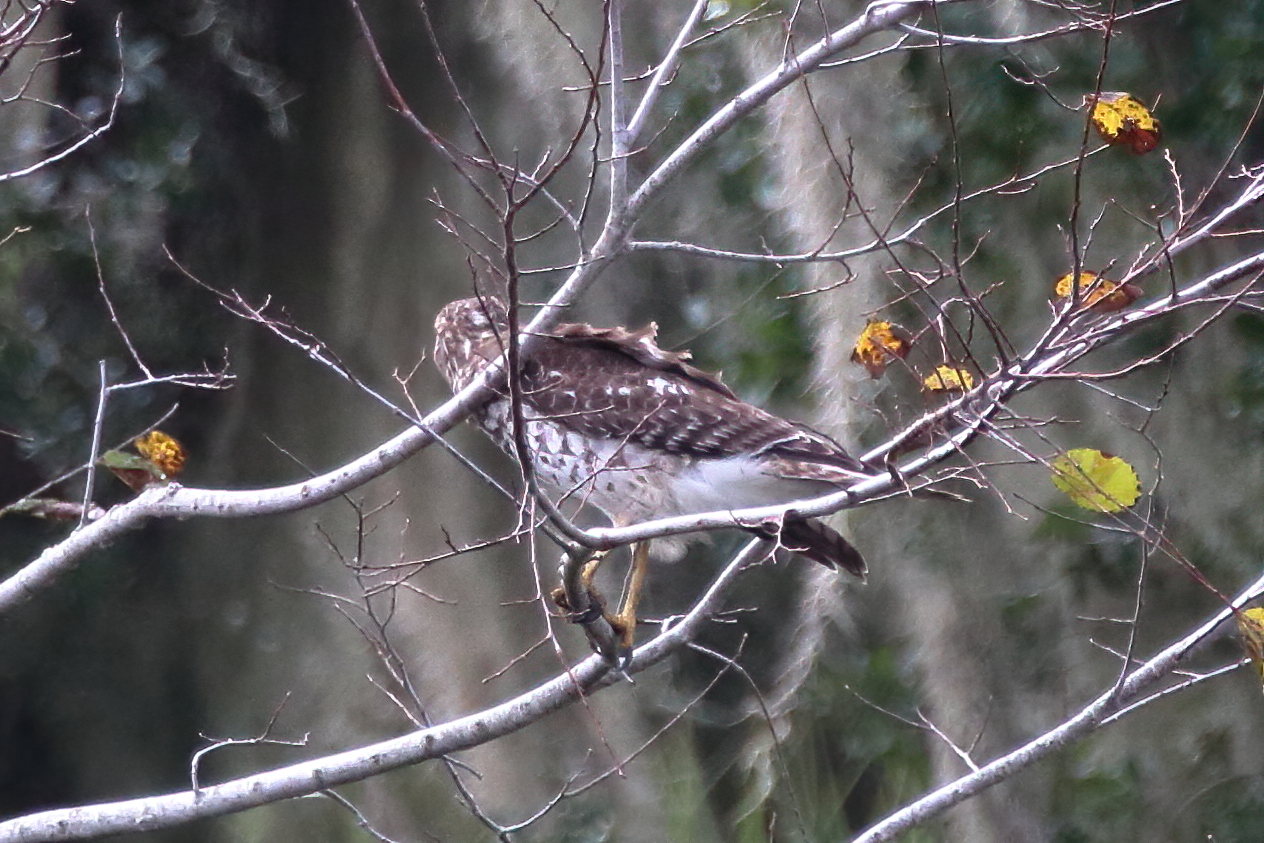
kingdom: Animalia
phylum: Chordata
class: Aves
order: Accipitriformes
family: Accipitridae
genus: Buteo
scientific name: Buteo lineatus
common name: Red-shouldered hawk
